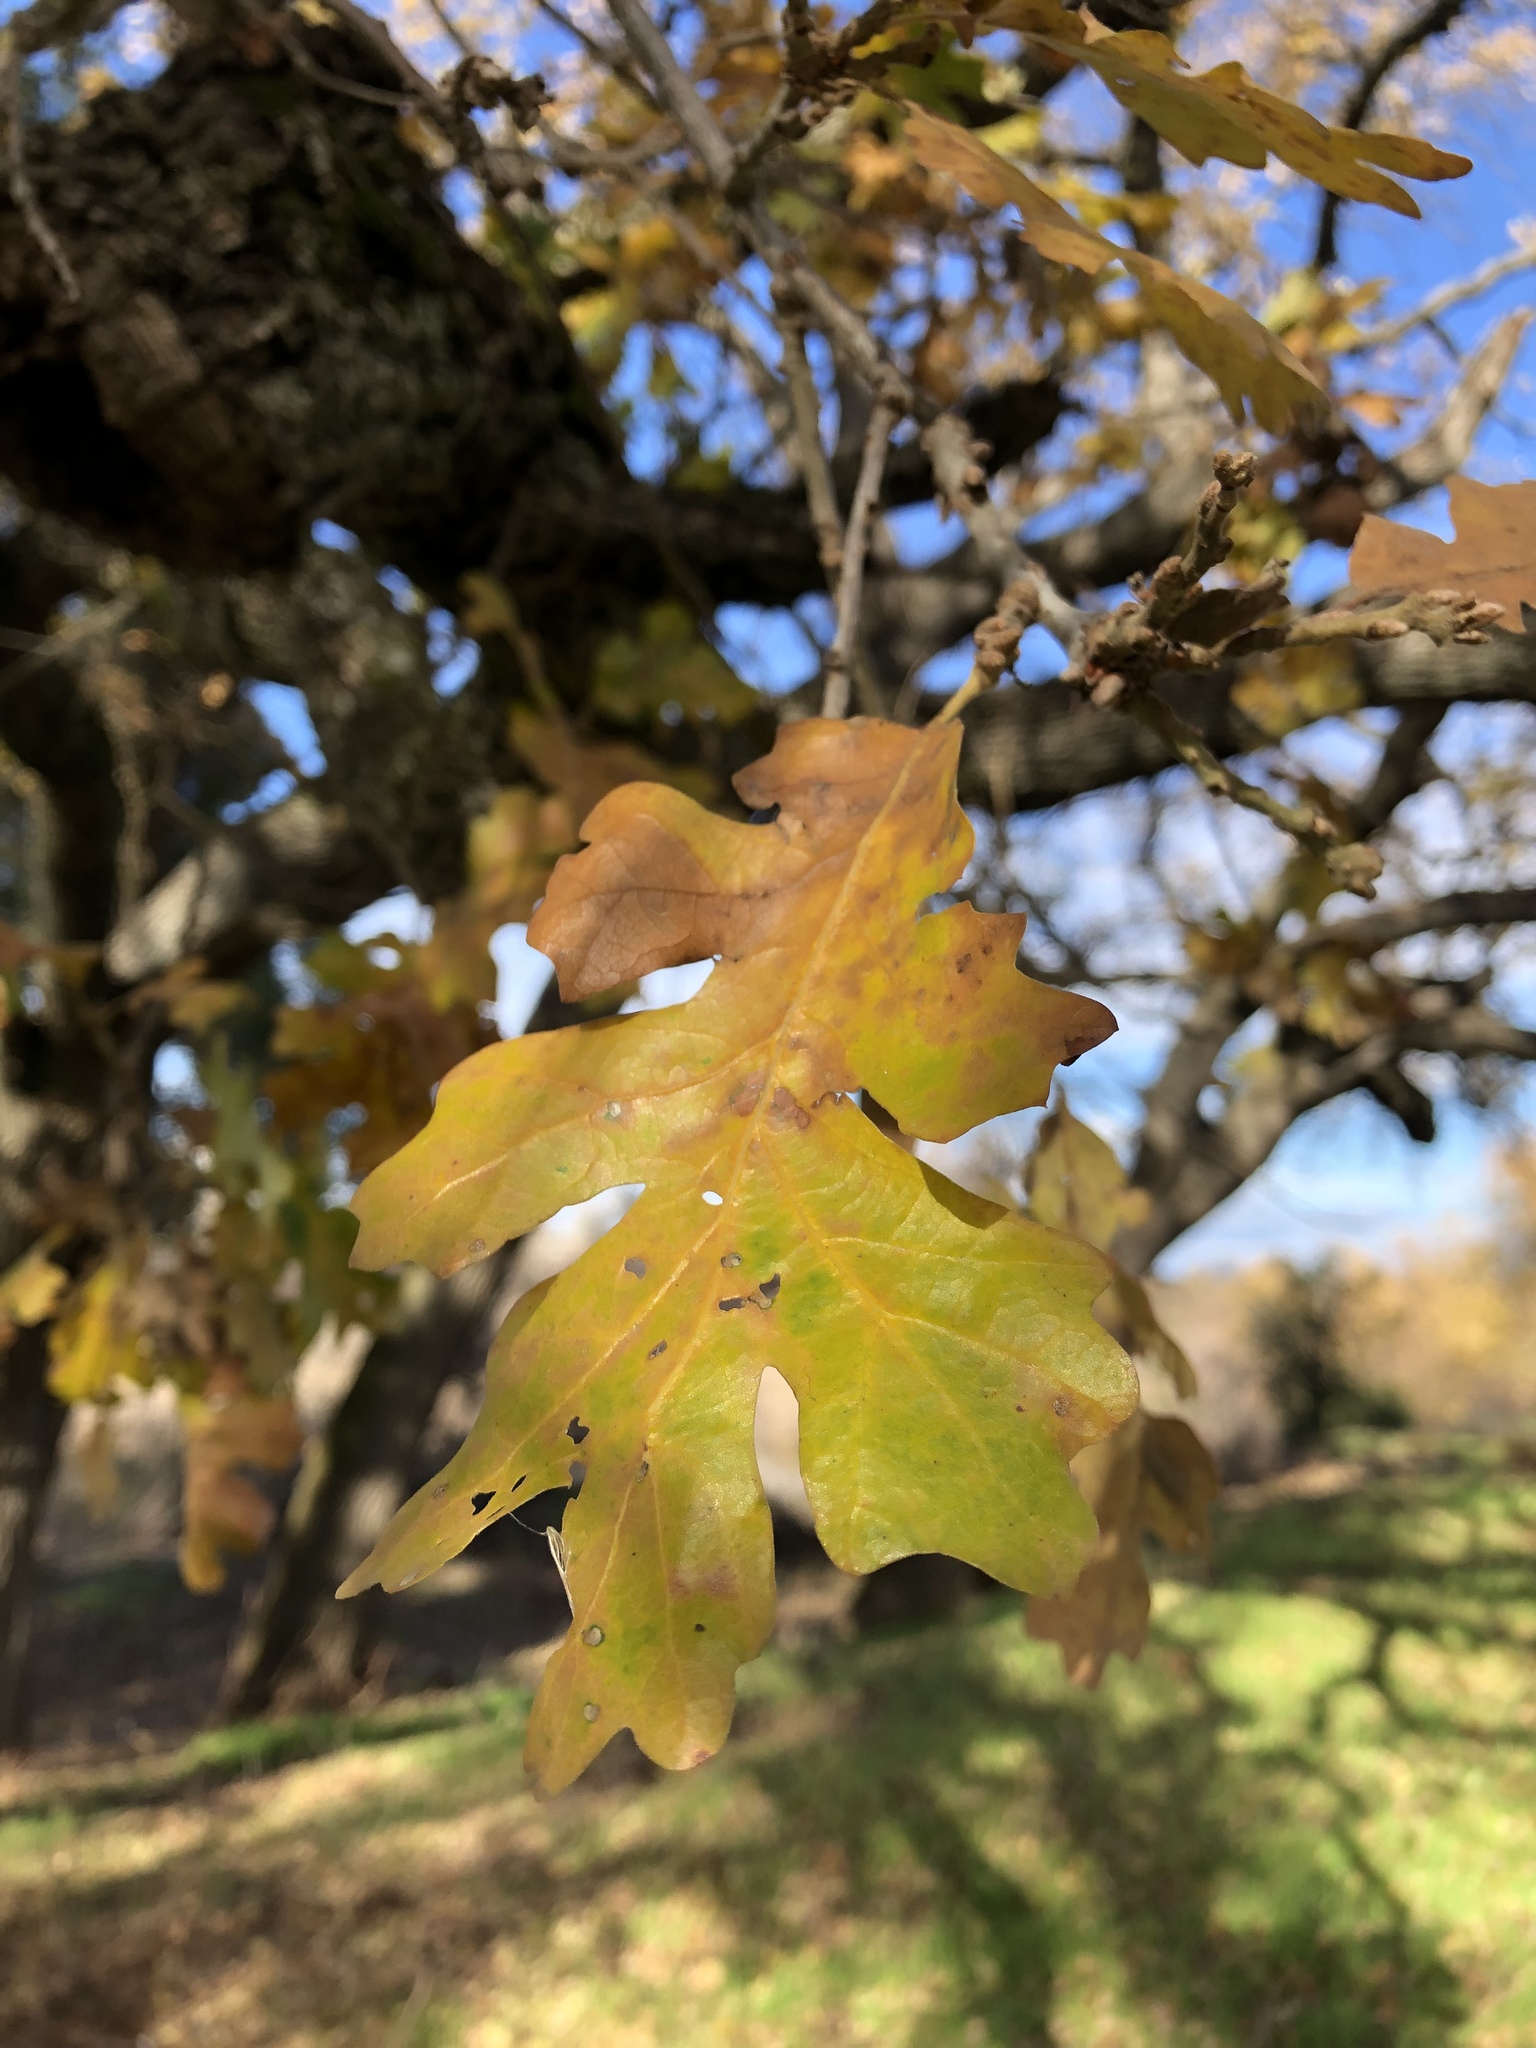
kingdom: Plantae
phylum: Tracheophyta
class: Magnoliopsida
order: Fagales
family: Fagaceae
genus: Quercus
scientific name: Quercus lobata
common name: Valley oak
